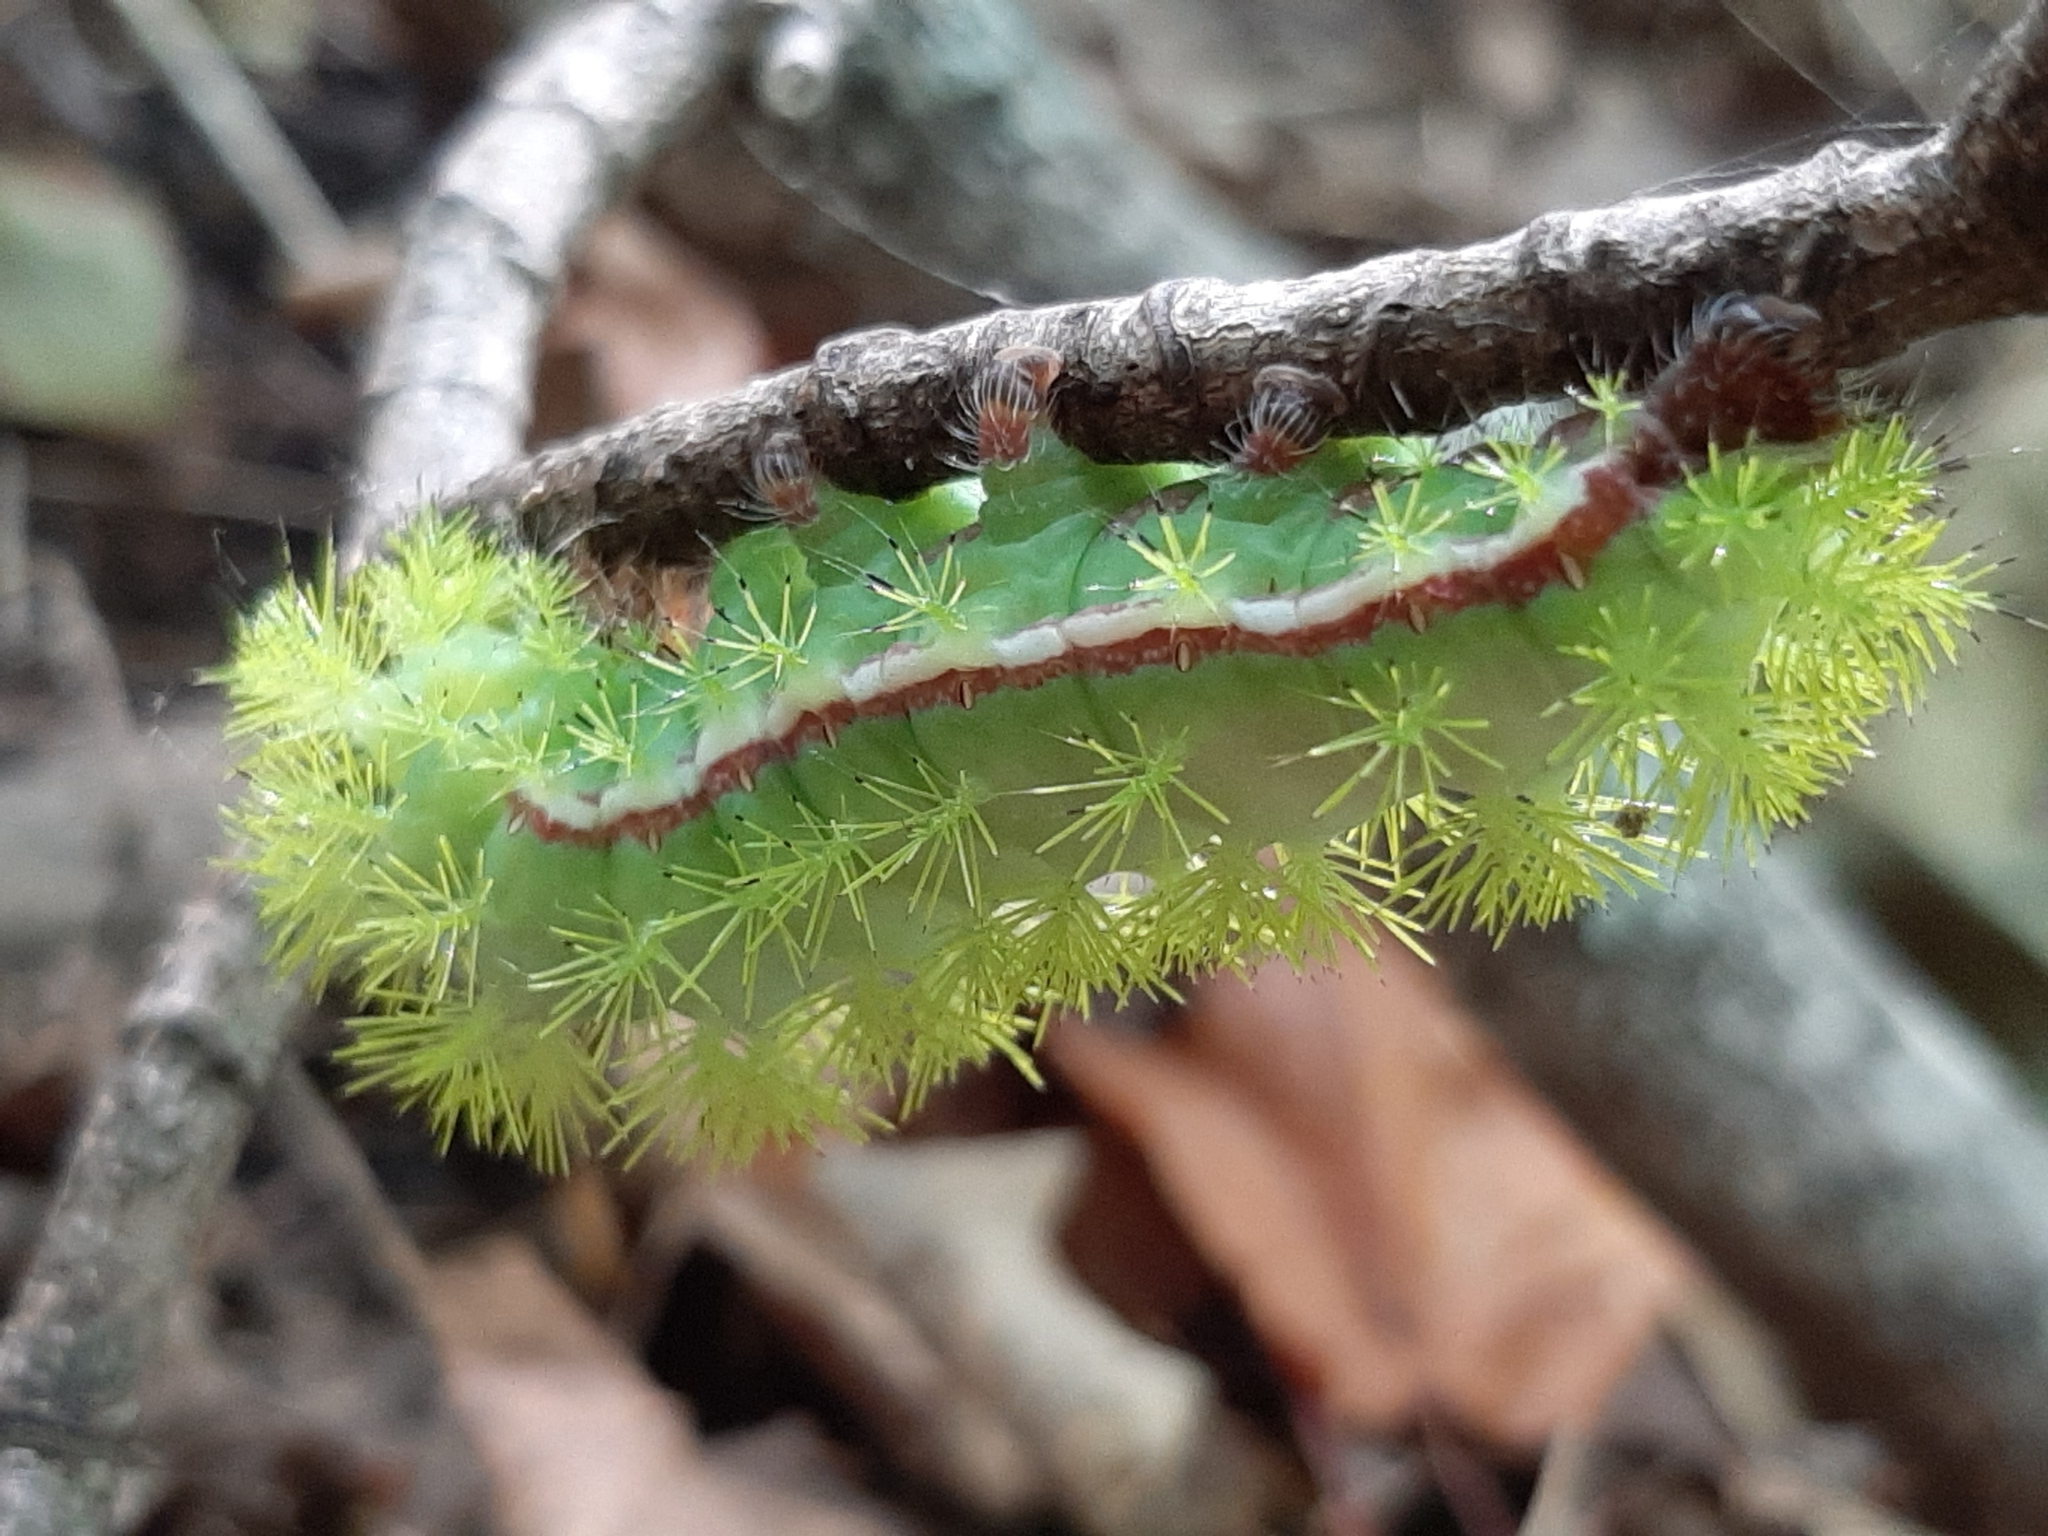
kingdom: Animalia
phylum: Arthropoda
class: Insecta
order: Lepidoptera
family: Saturniidae
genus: Automeris
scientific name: Automeris io
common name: Io moth
